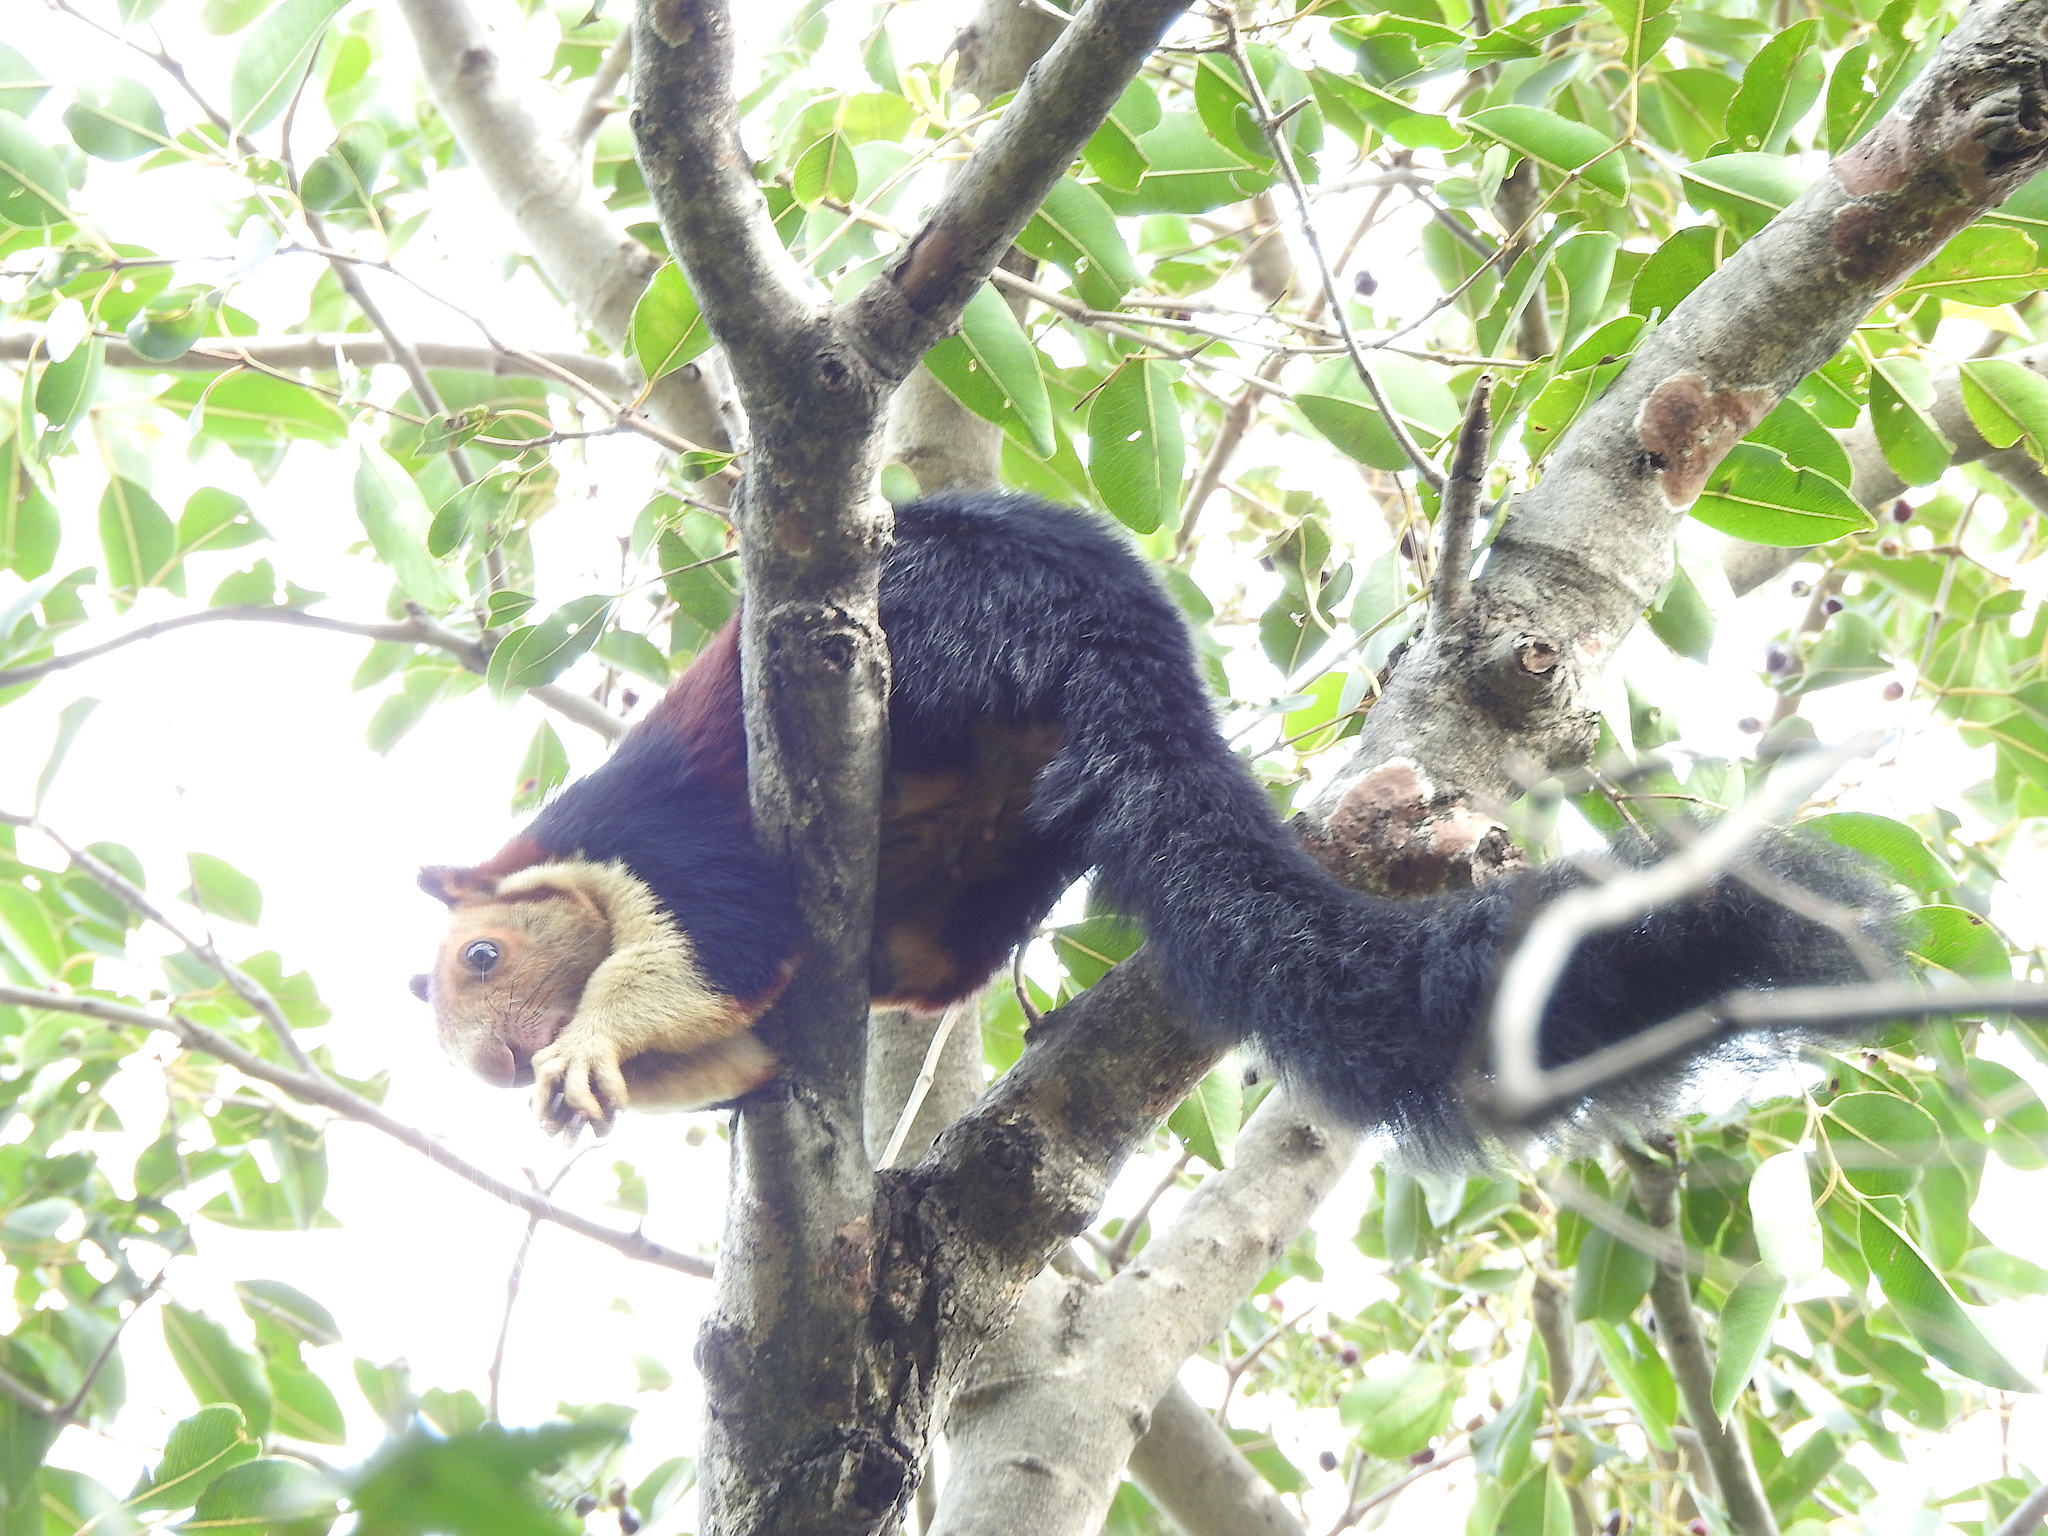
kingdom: Animalia
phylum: Chordata
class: Mammalia
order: Rodentia
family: Sciuridae
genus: Ratufa
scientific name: Ratufa indica
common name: Indian giant squirrel
